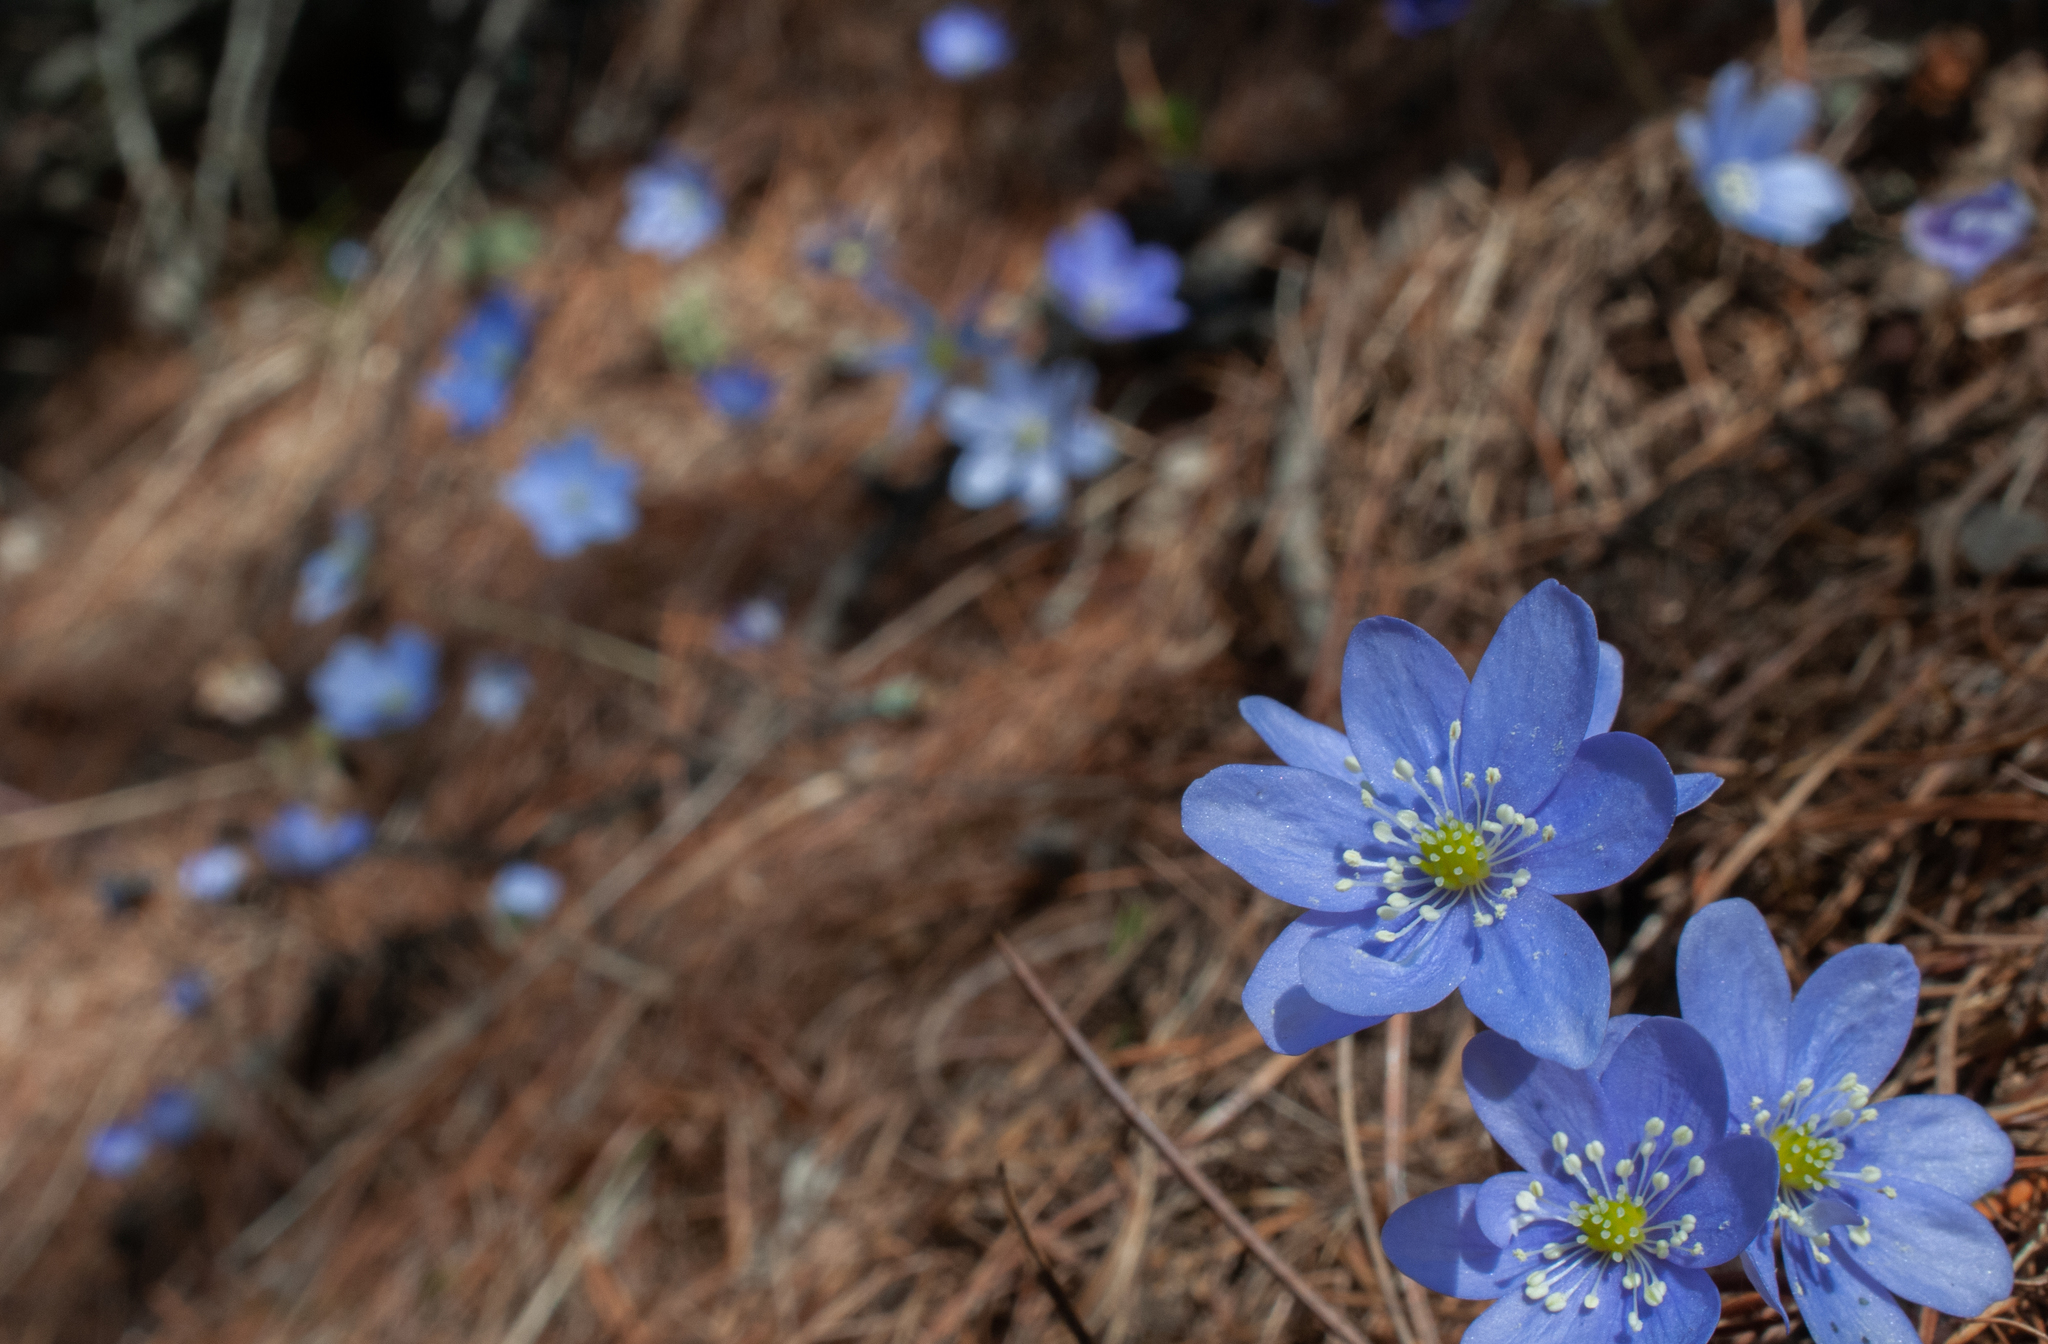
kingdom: Plantae
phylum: Tracheophyta
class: Magnoliopsida
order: Ranunculales
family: Ranunculaceae
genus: Hepatica
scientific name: Hepatica nobilis
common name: Liverleaf
